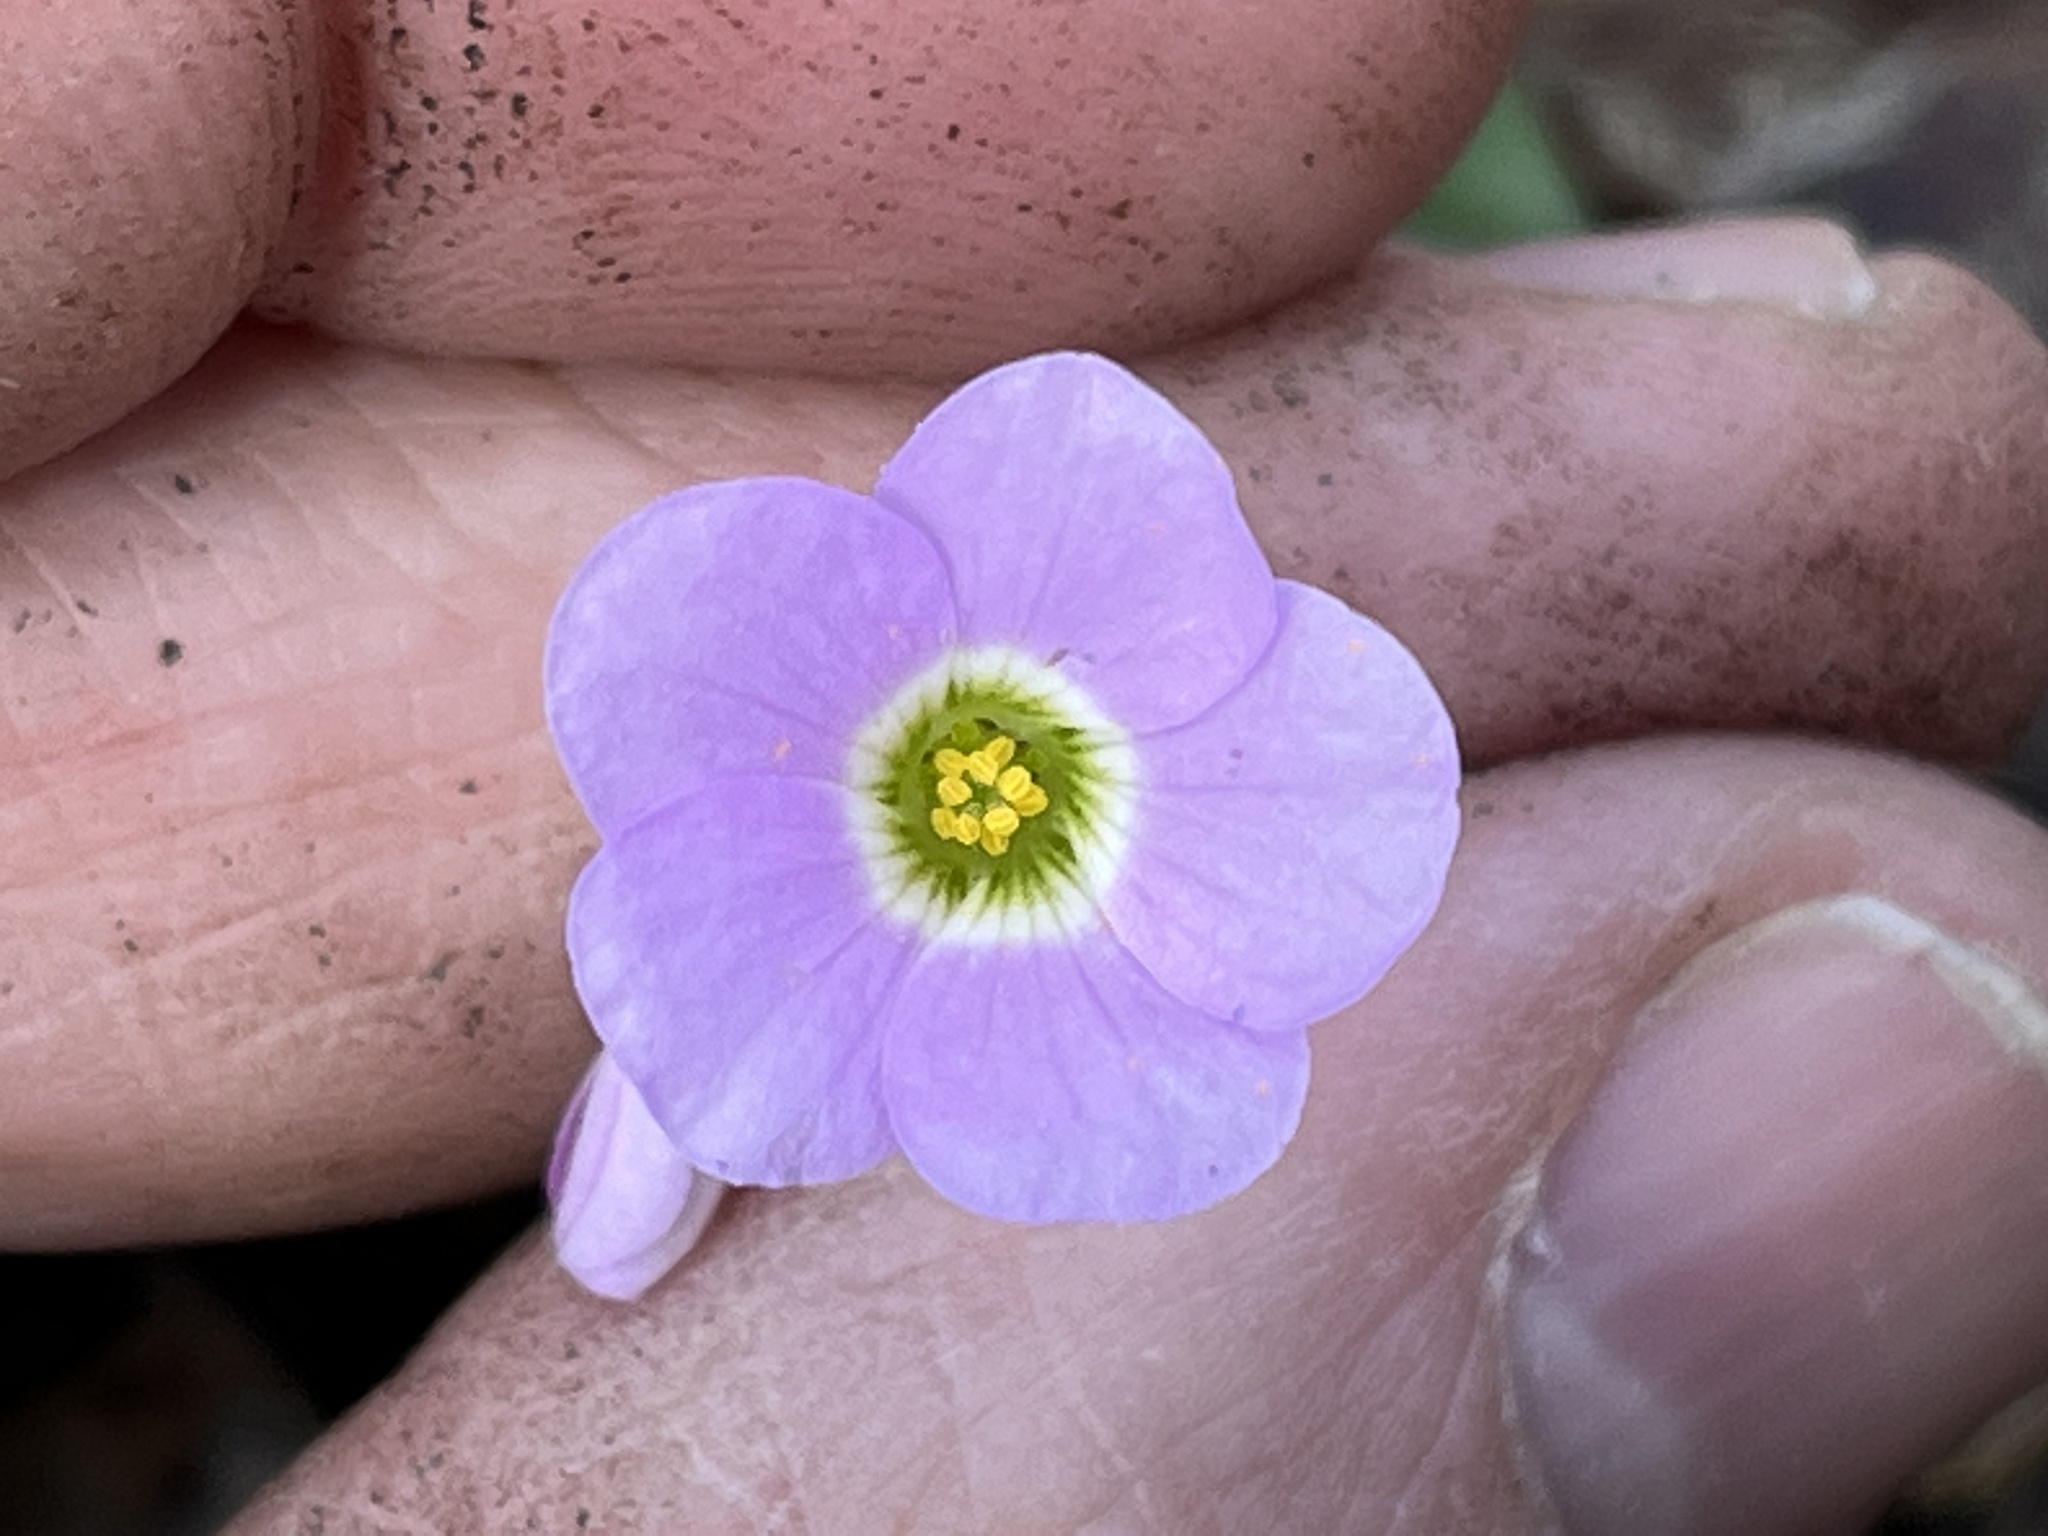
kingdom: Plantae
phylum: Tracheophyta
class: Magnoliopsida
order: Oxalidales
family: Oxalidaceae
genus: Oxalis
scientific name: Oxalis violacea
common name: Violet wood-sorrel
